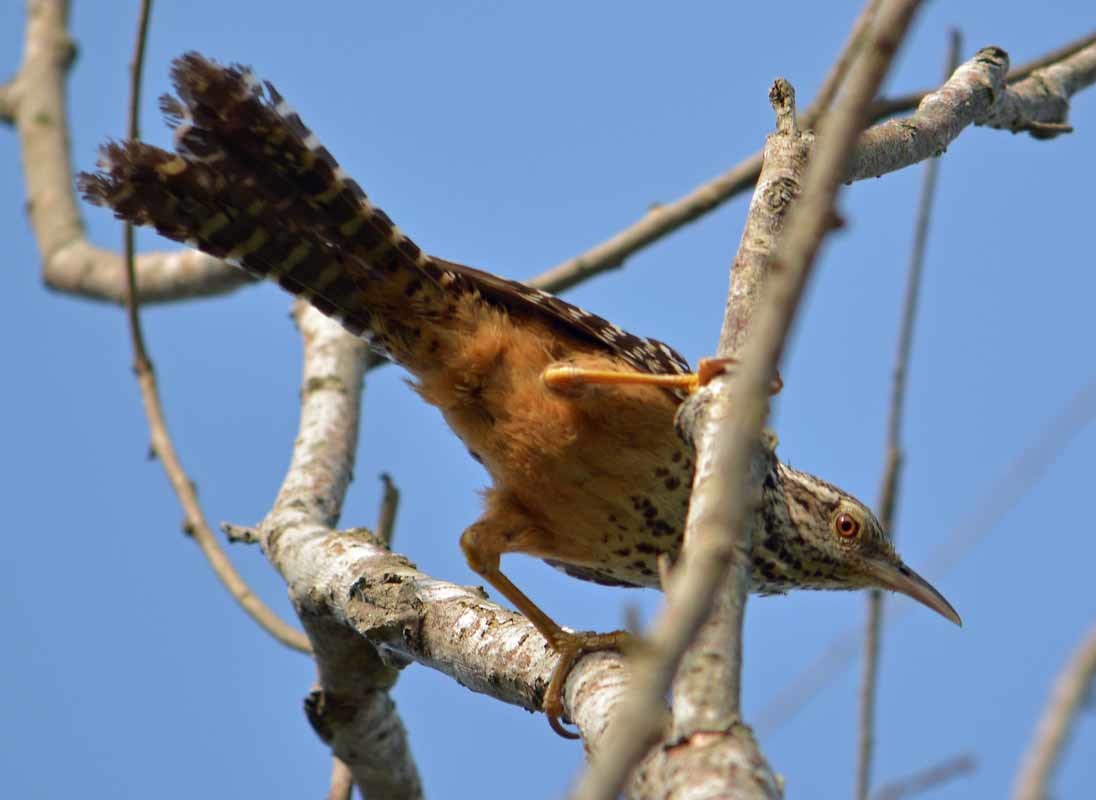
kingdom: Animalia
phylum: Chordata
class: Aves
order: Passeriformes
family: Troglodytidae
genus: Campylorhynchus
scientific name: Campylorhynchus zonatus
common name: Band-backed wren
